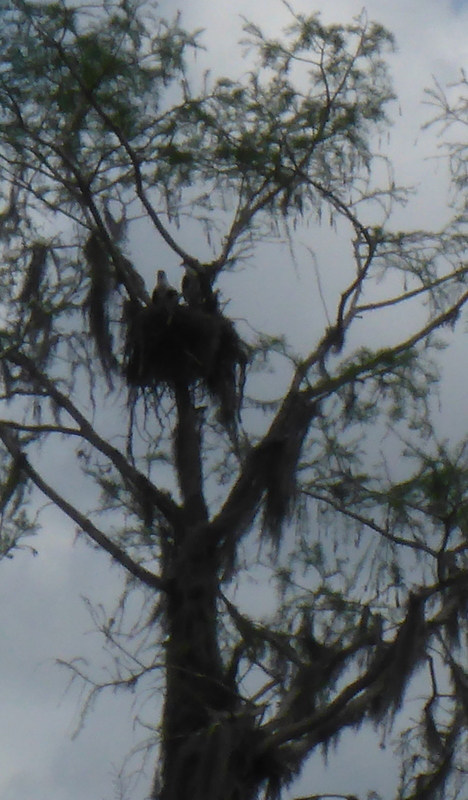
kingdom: Animalia
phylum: Chordata
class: Aves
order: Accipitriformes
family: Pandionidae
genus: Pandion
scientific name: Pandion haliaetus
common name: Osprey
